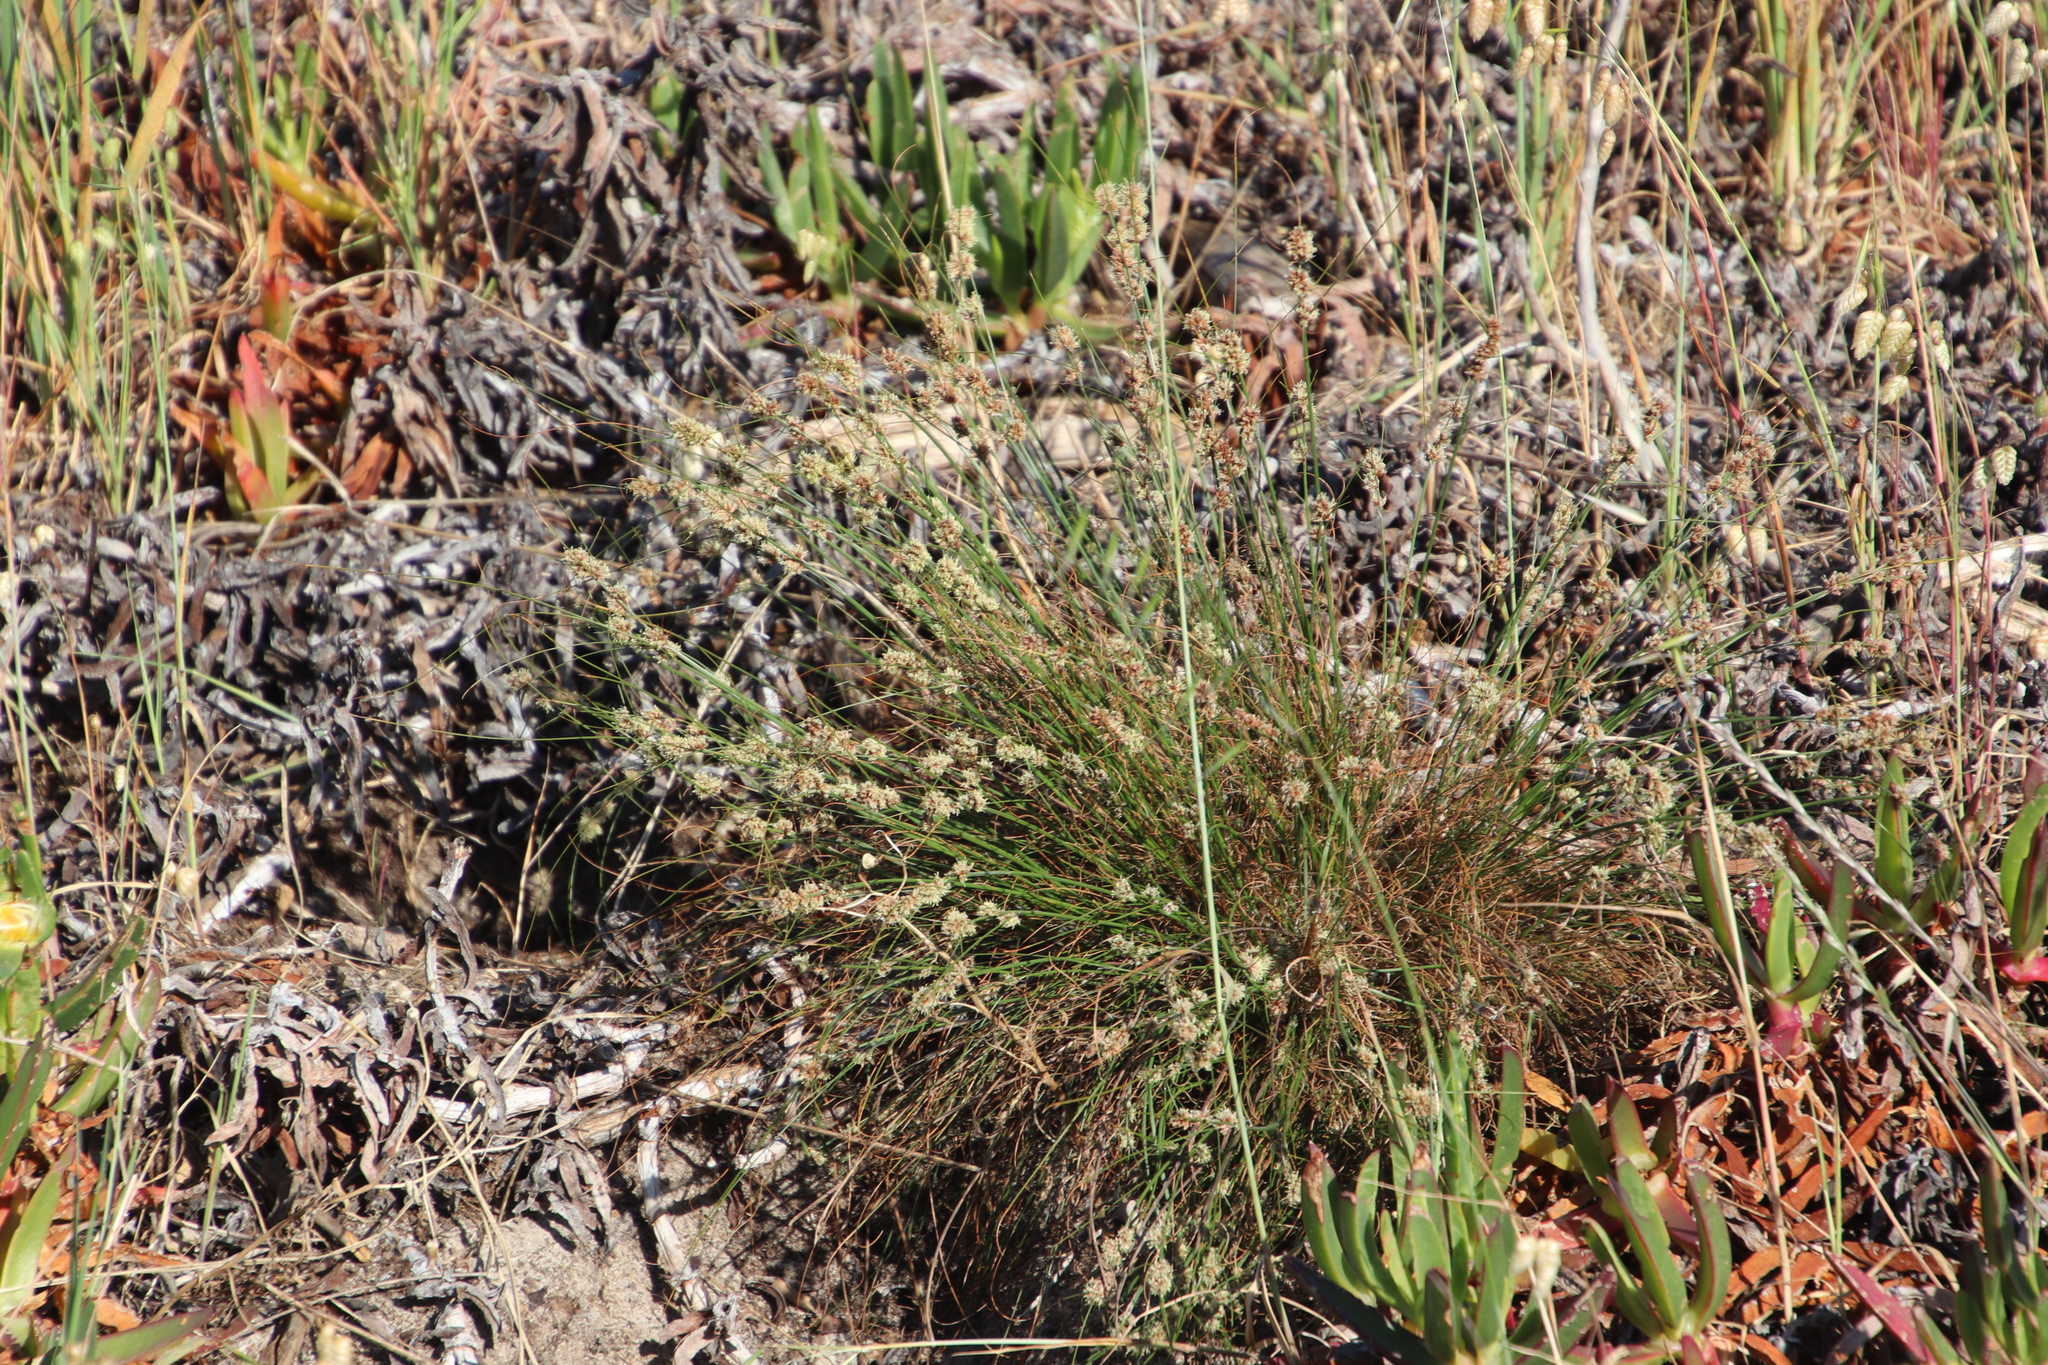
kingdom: Plantae
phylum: Tracheophyta
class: Liliopsida
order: Poales
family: Cyperaceae
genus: Ficinia
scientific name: Ficinia bulbosa
